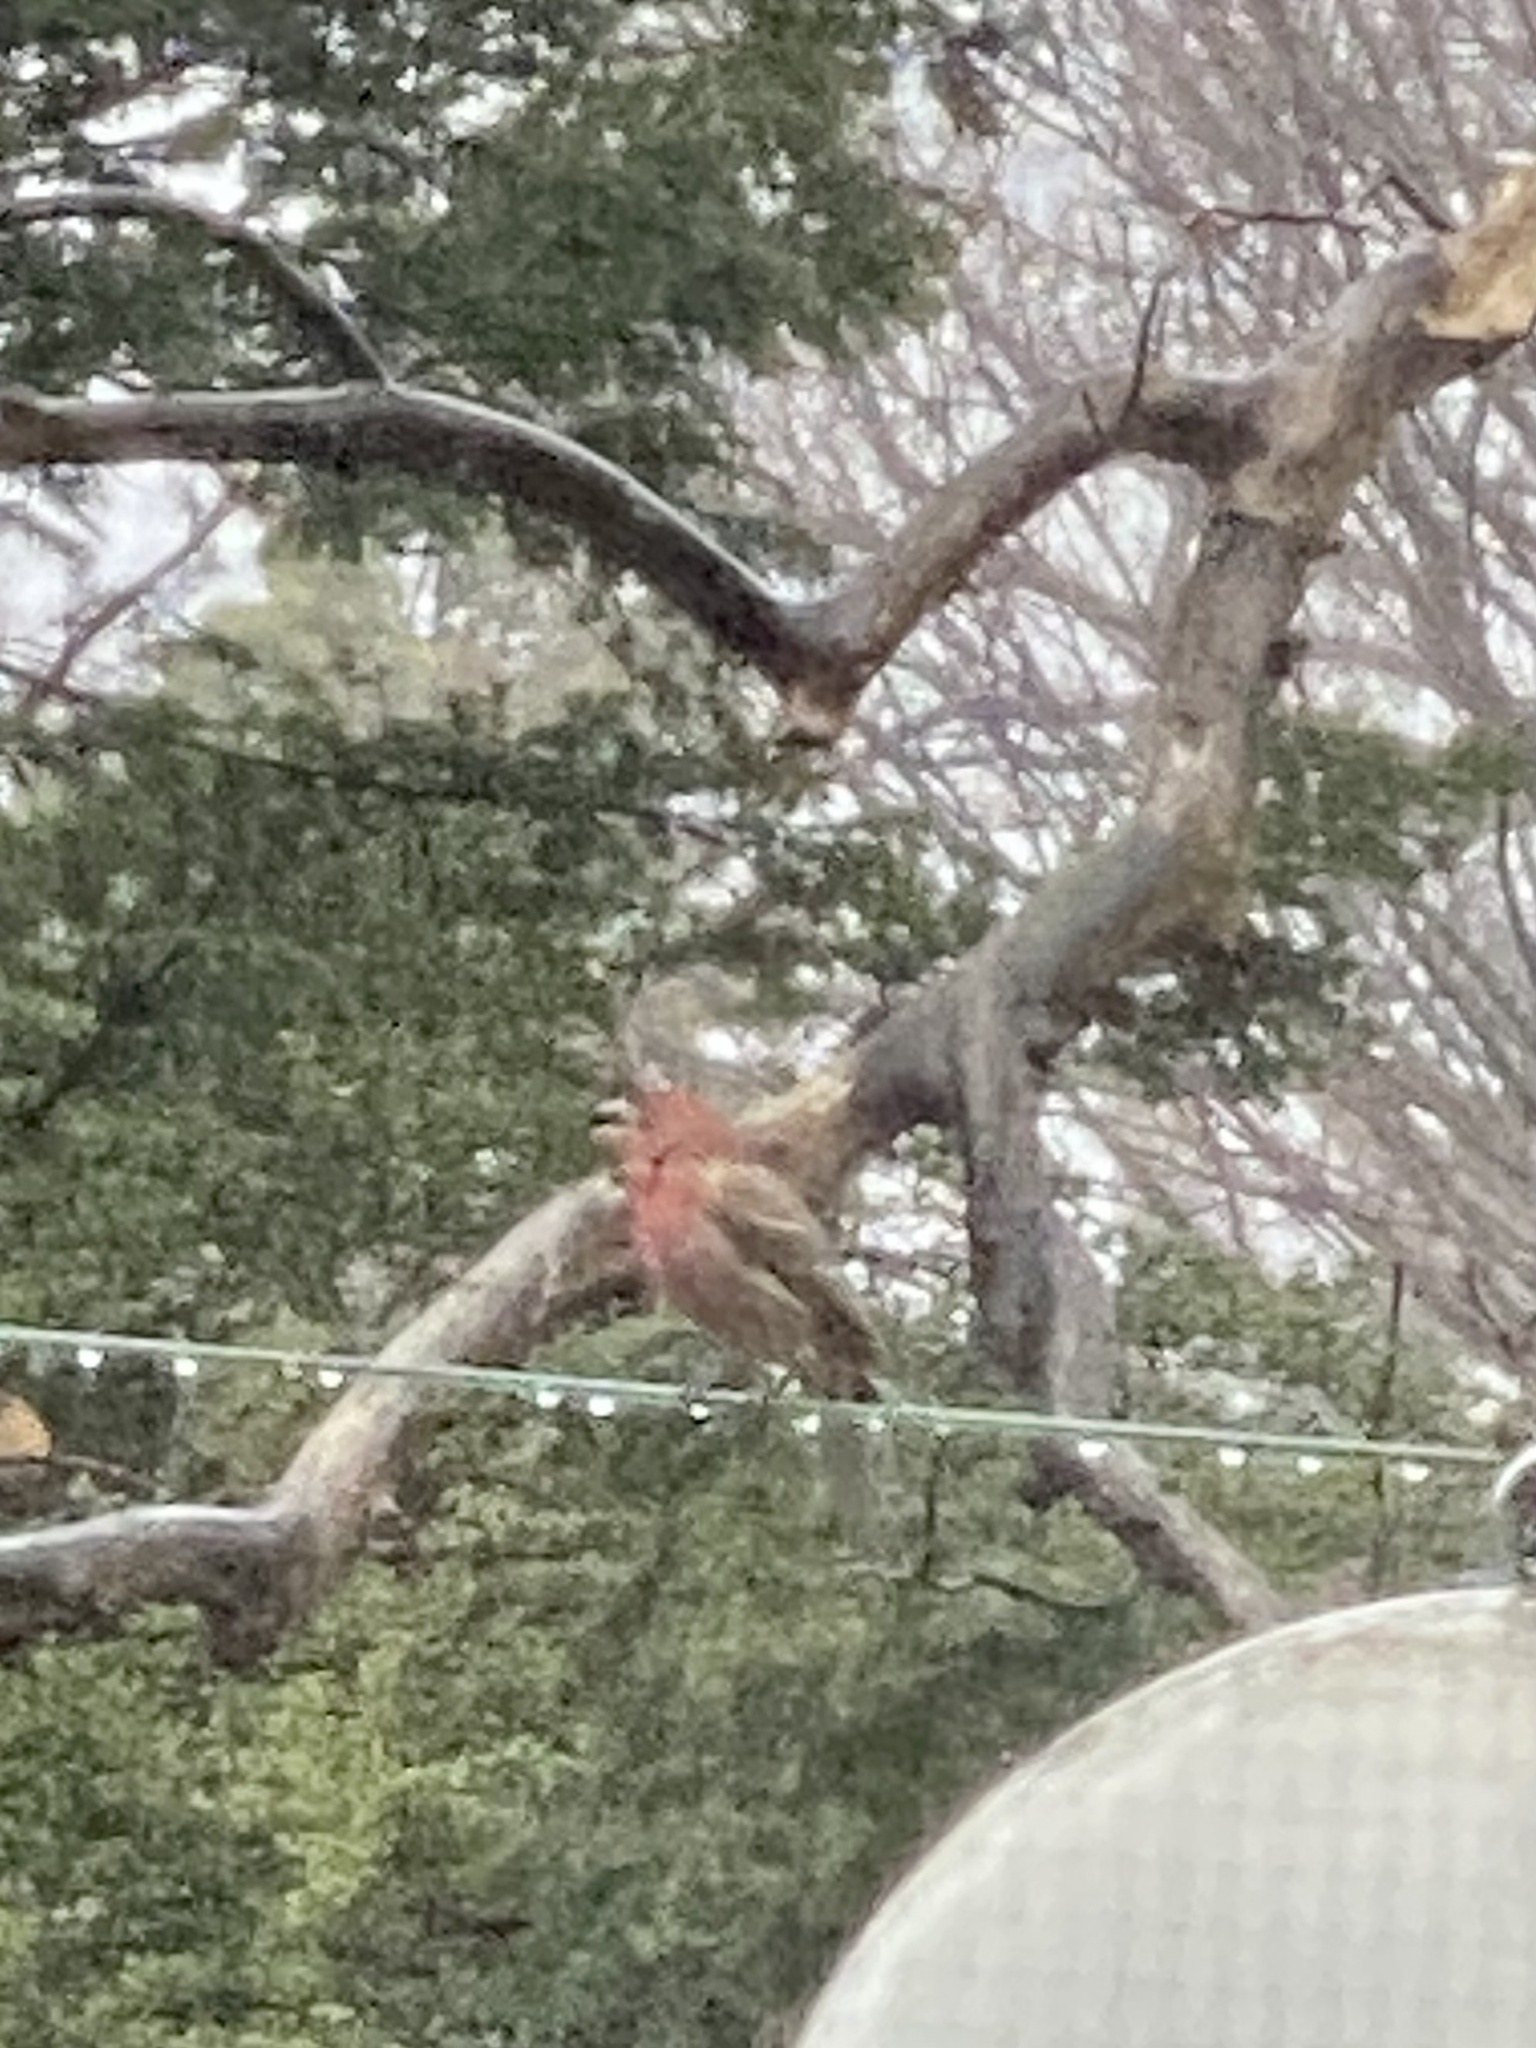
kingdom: Animalia
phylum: Chordata
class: Aves
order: Passeriformes
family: Fringillidae
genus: Haemorhous
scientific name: Haemorhous mexicanus
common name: House finch
